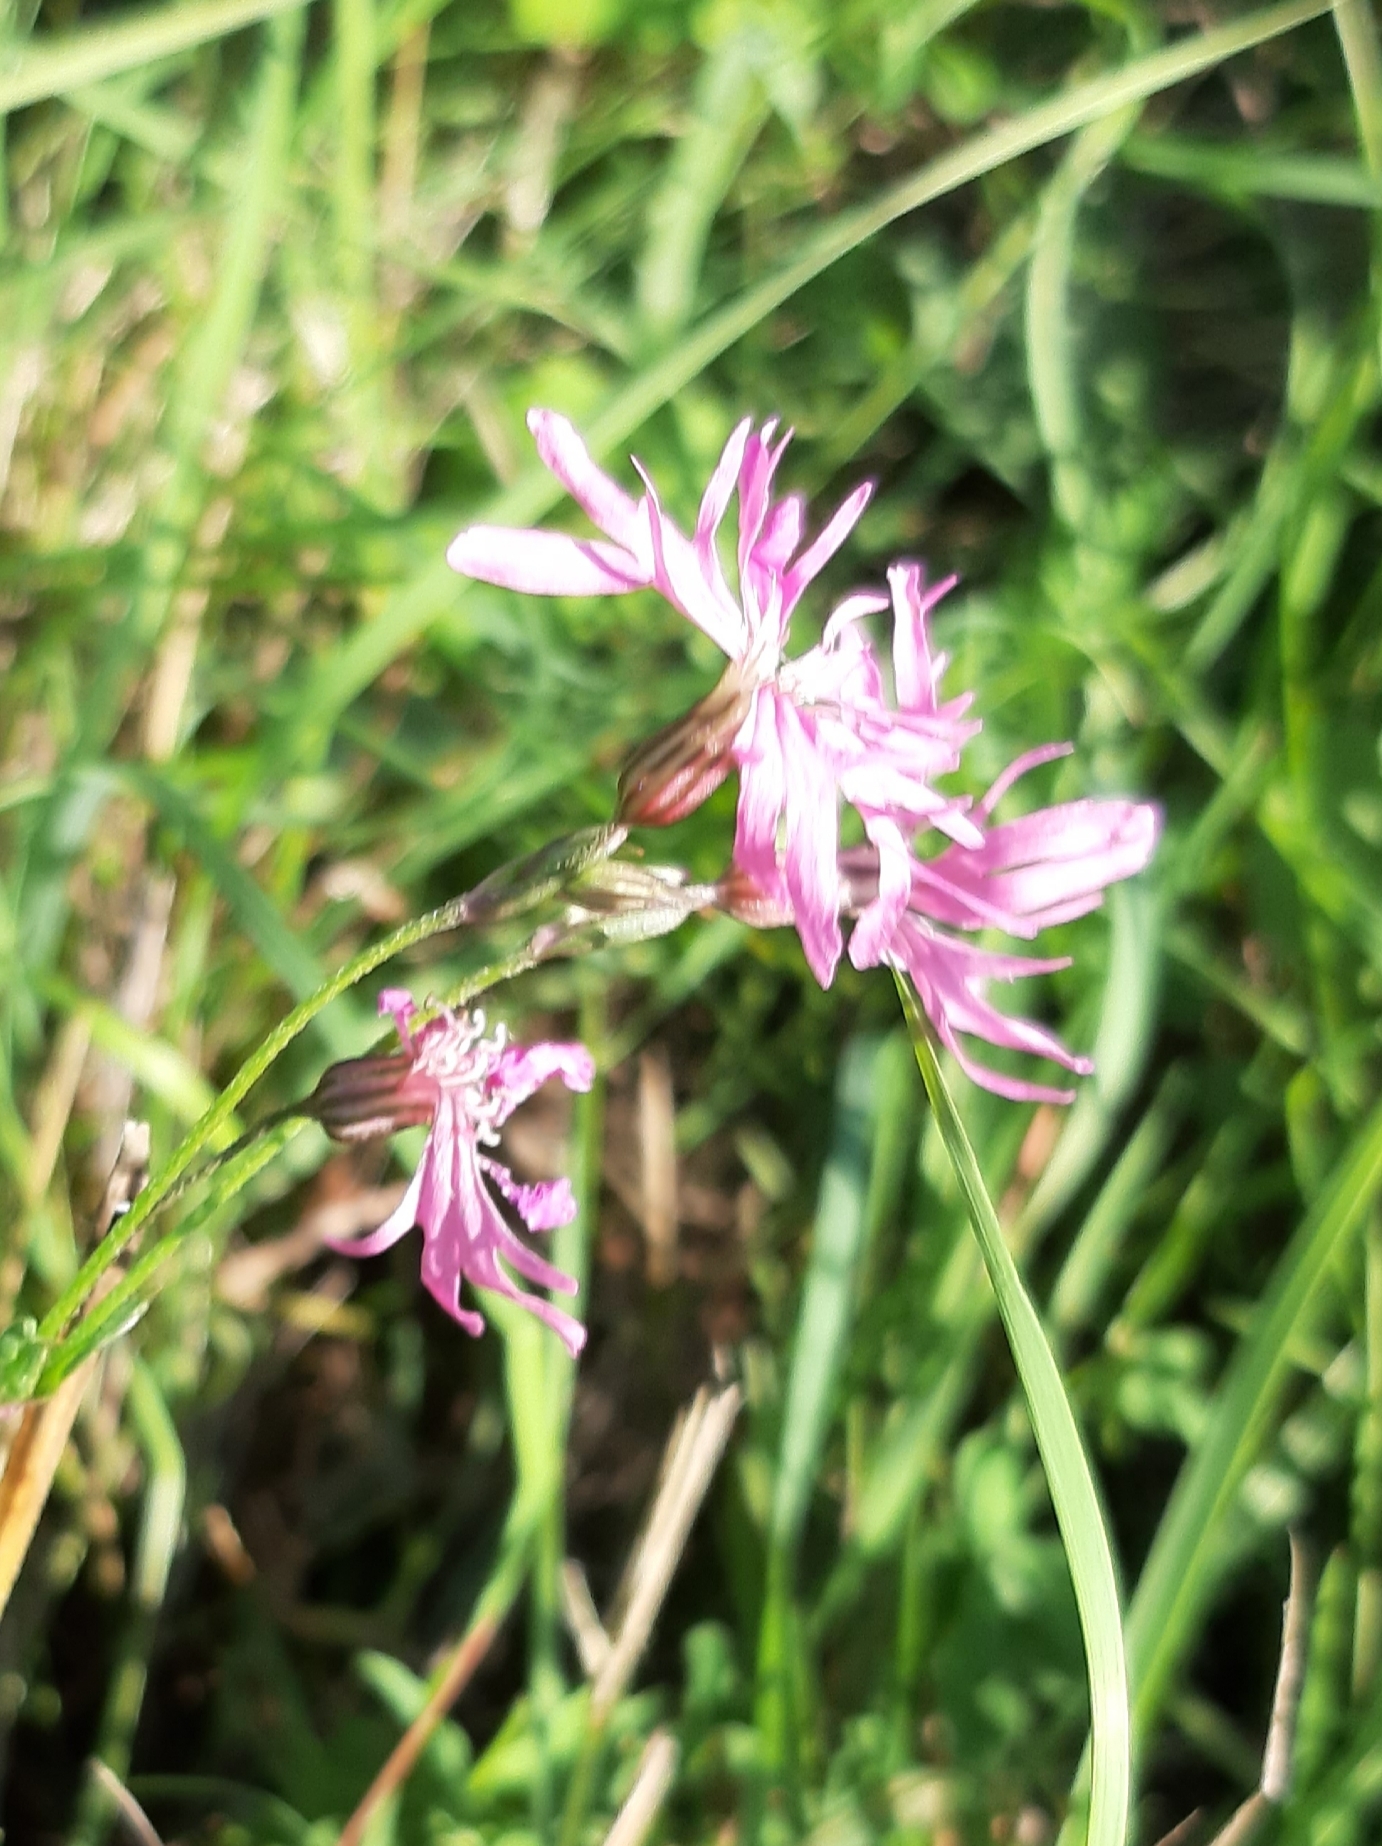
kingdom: Plantae
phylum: Tracheophyta
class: Magnoliopsida
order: Caryophyllales
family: Caryophyllaceae
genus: Silene
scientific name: Silene flos-cuculi
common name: Ragged-robin
